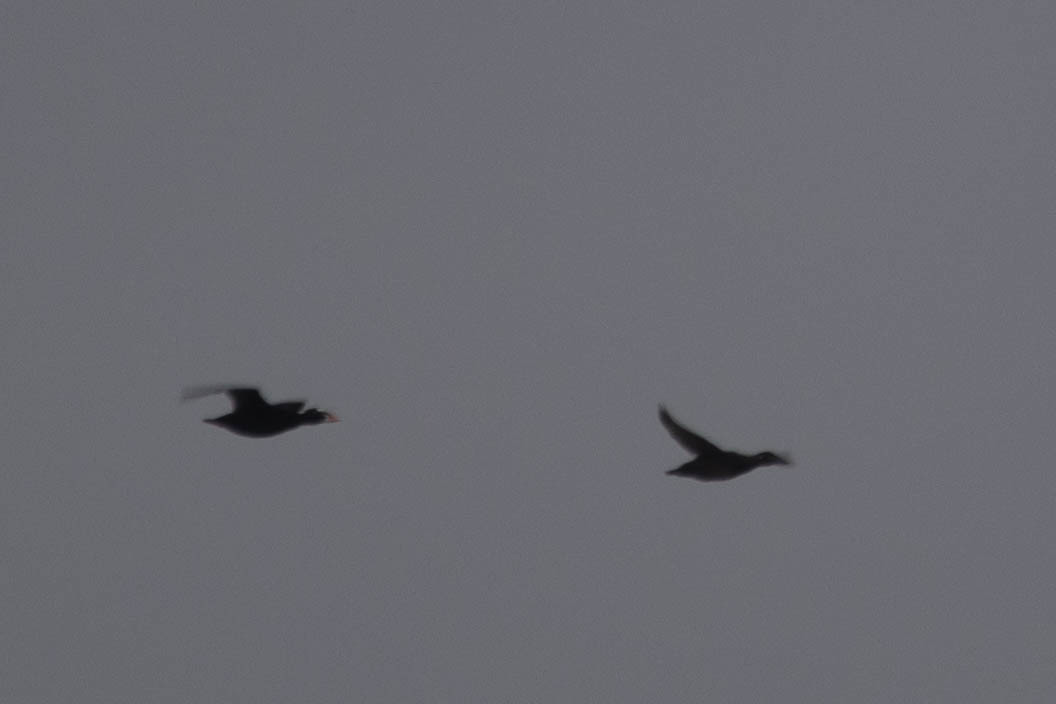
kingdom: Animalia
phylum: Chordata
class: Aves
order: Anseriformes
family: Anatidae
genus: Melanitta
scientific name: Melanitta perspicillata
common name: Surf scoter
